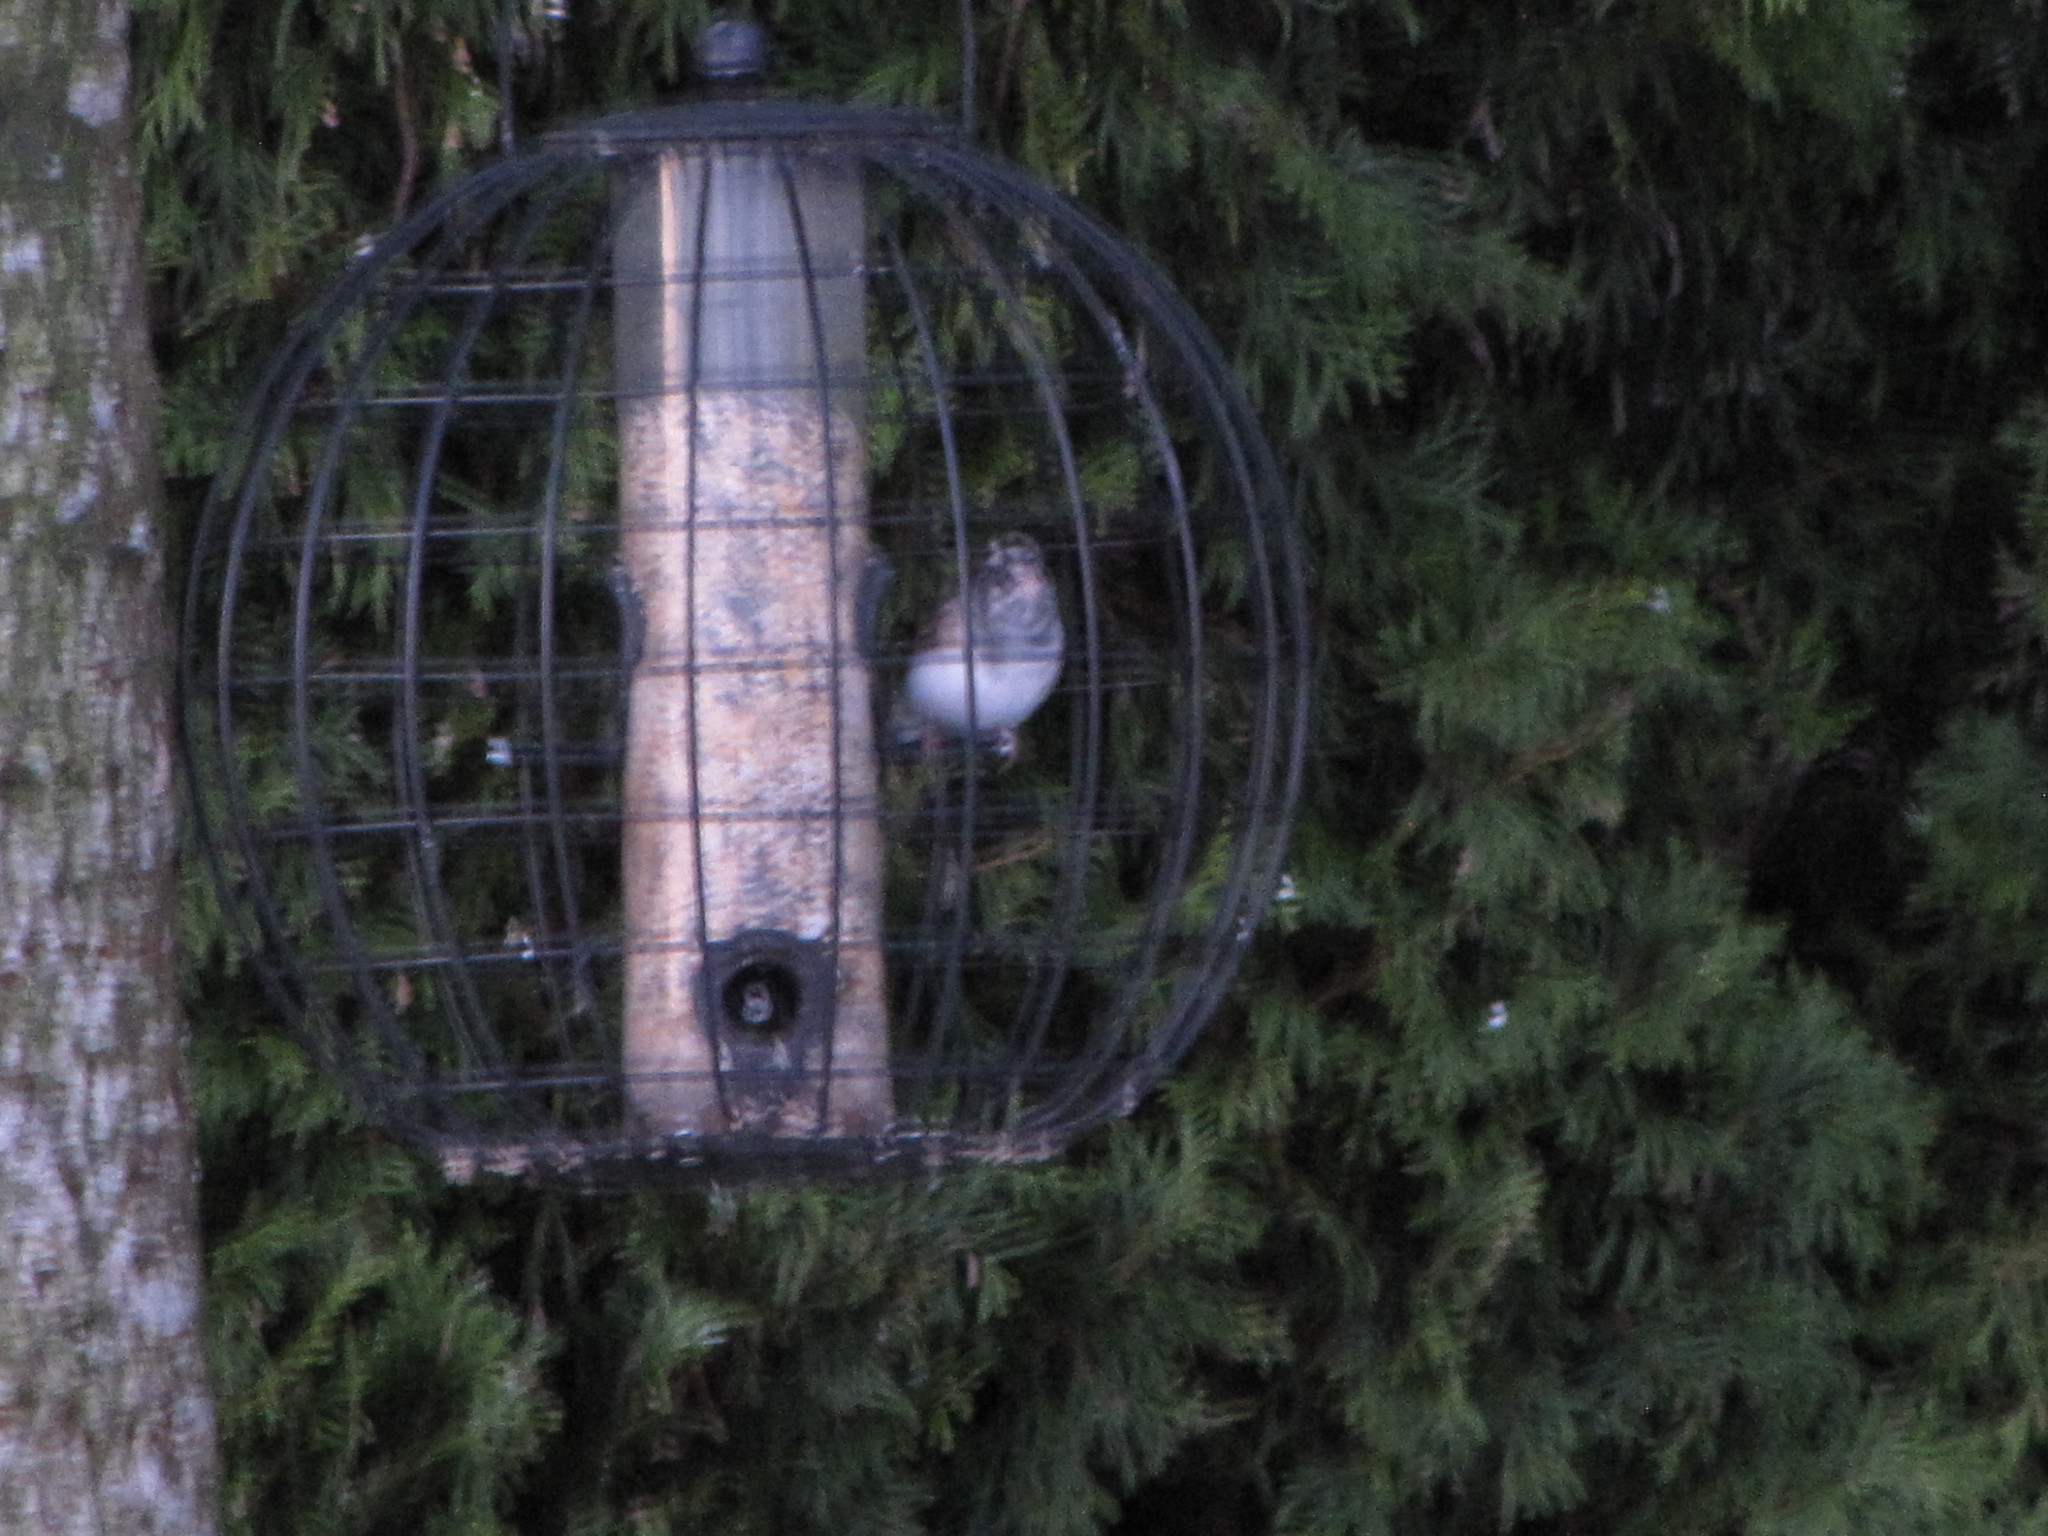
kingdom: Animalia
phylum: Chordata
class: Aves
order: Passeriformes
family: Passerellidae
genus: Junco
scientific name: Junco hyemalis
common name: Dark-eyed junco
